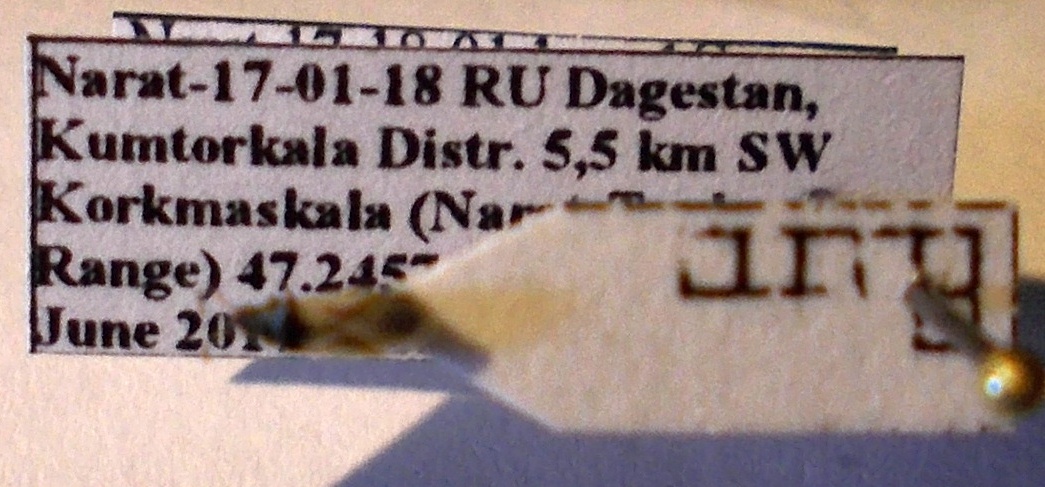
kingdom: Animalia
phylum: Arthropoda
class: Insecta
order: Hemiptera
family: Oxycarenidae
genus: Metopoplax
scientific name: Metopoplax origani
